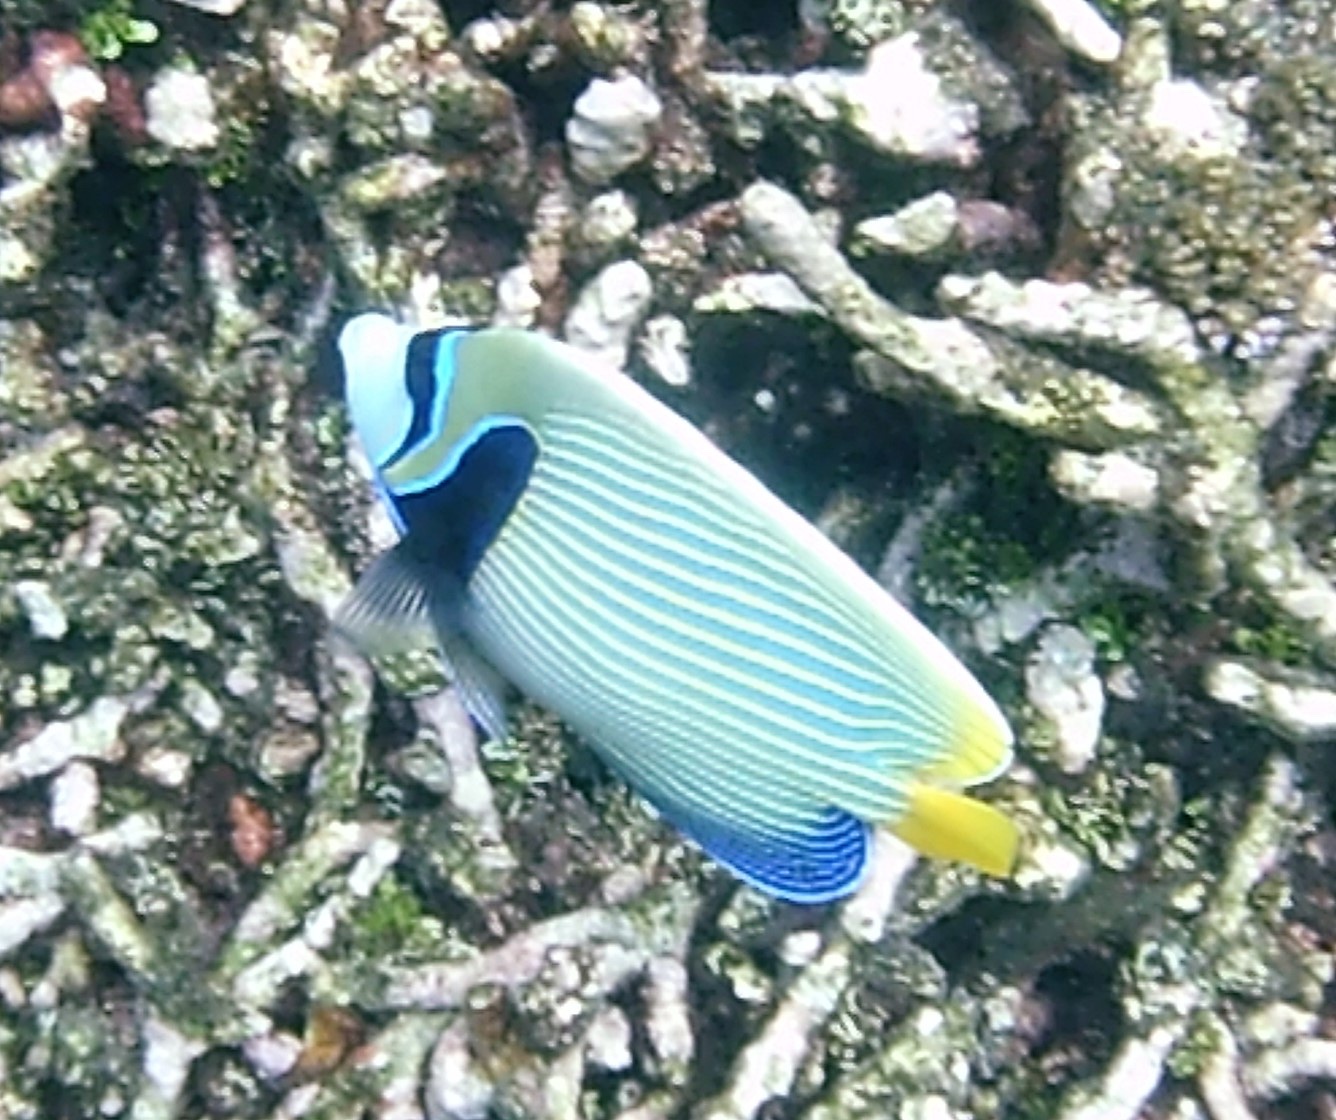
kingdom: Animalia
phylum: Chordata
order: Perciformes
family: Pomacanthidae
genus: Pomacanthus
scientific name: Pomacanthus imperator
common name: Emperor angelfish
